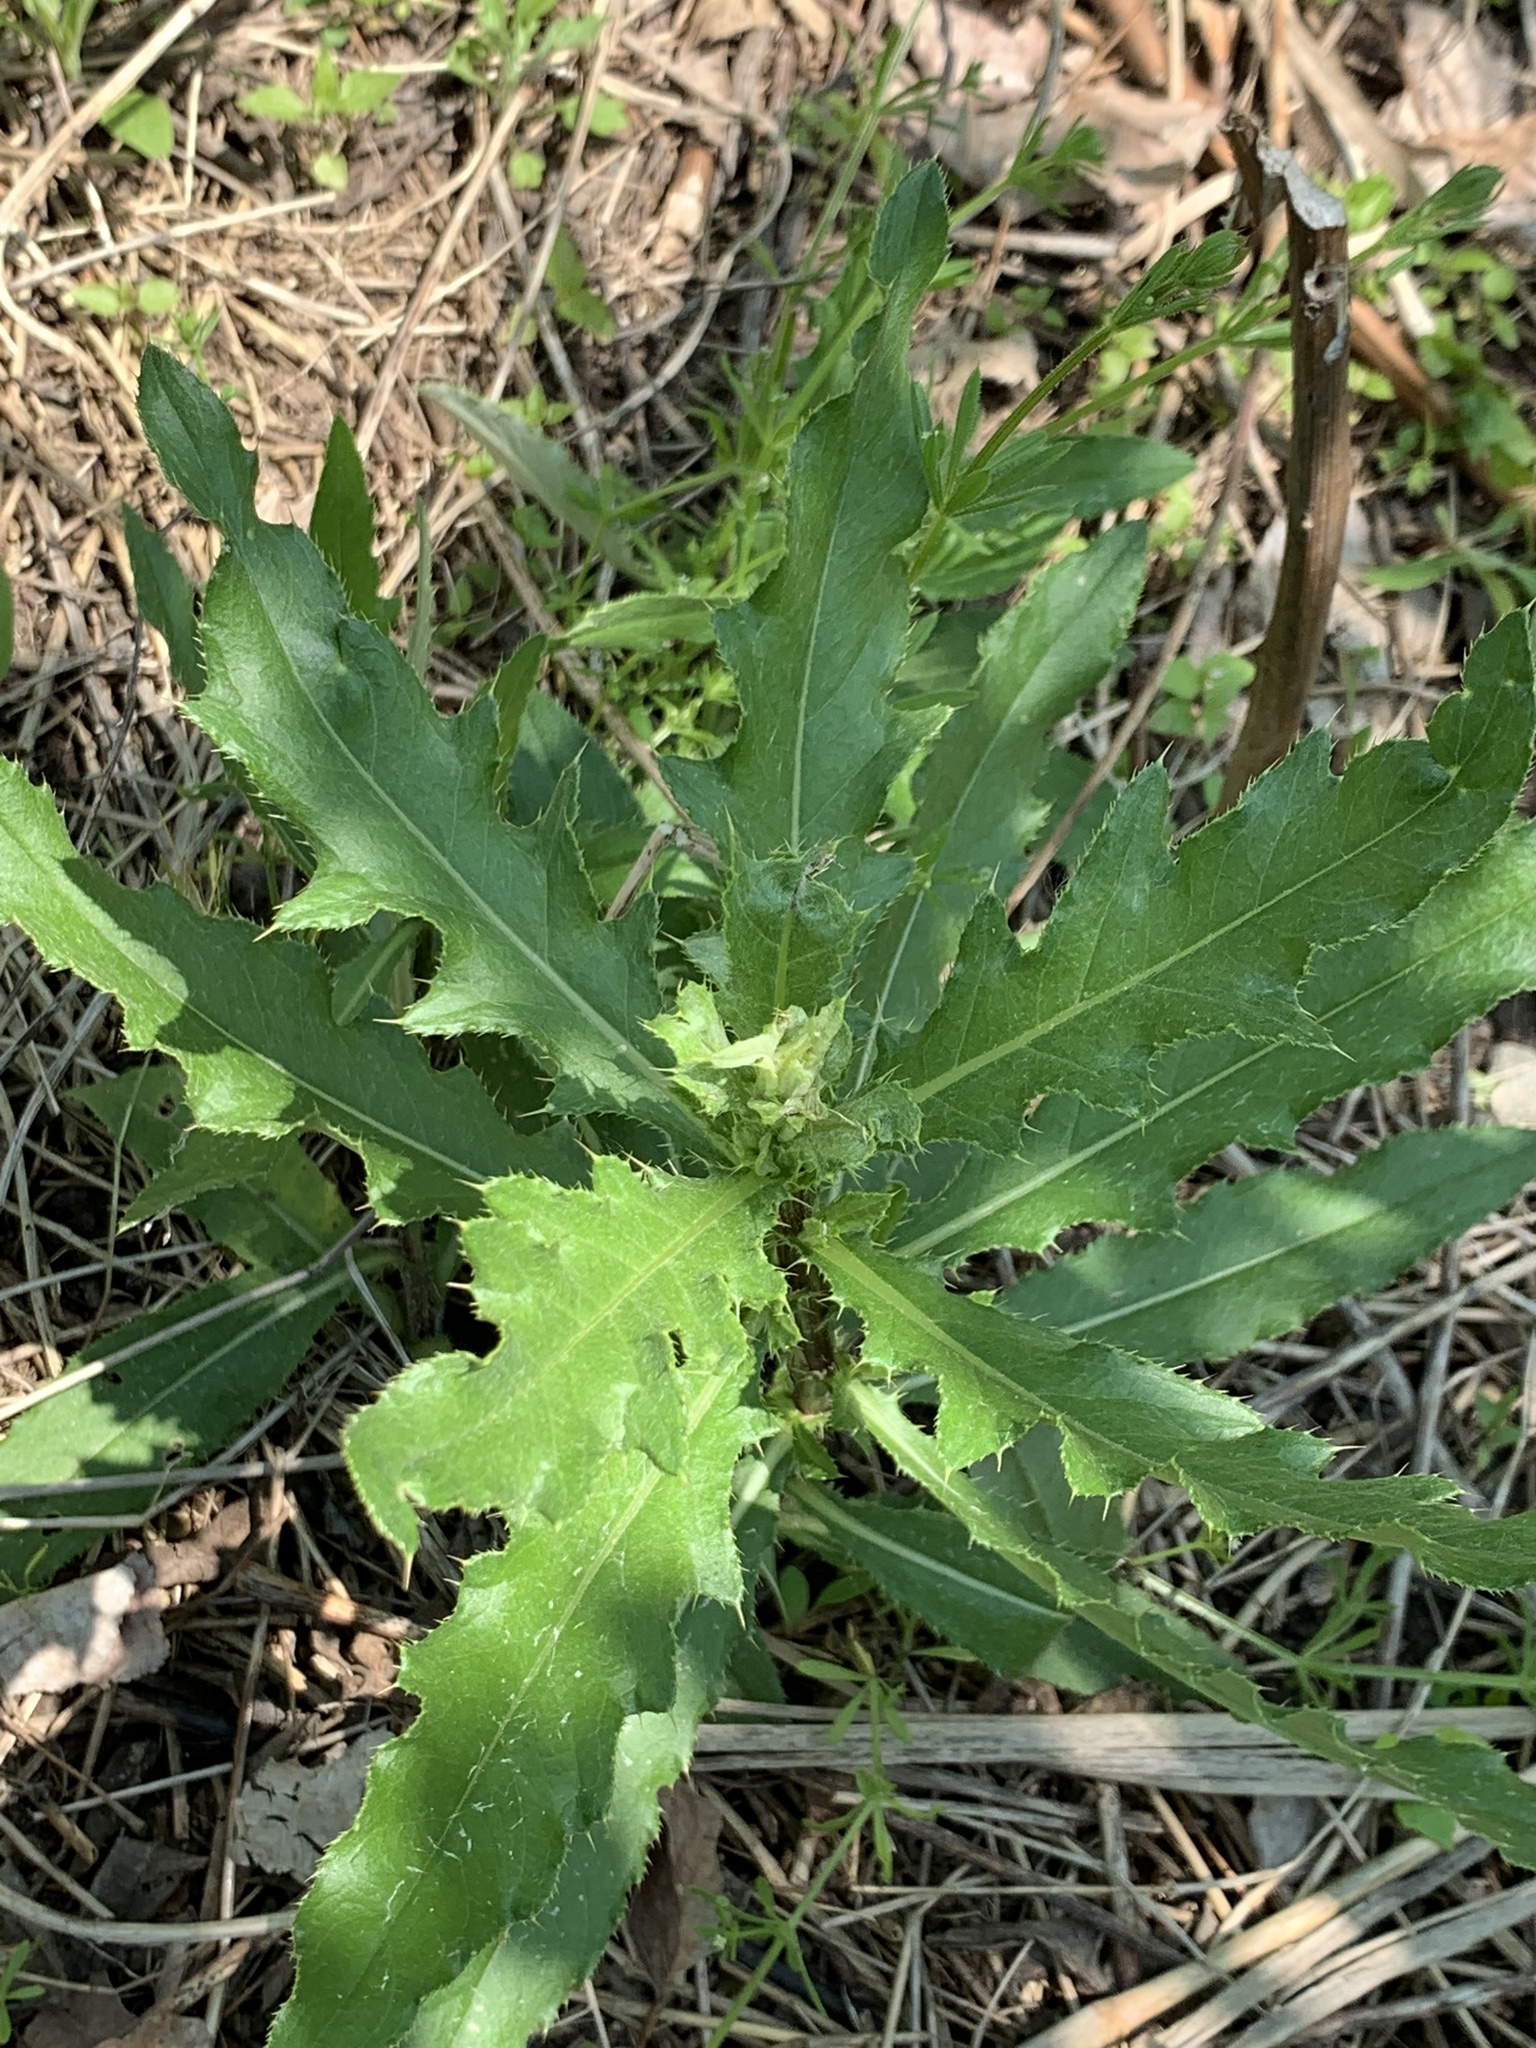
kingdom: Plantae
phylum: Tracheophyta
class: Magnoliopsida
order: Asterales
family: Asteraceae
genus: Cirsium
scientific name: Cirsium arvense
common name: Creeping thistle
